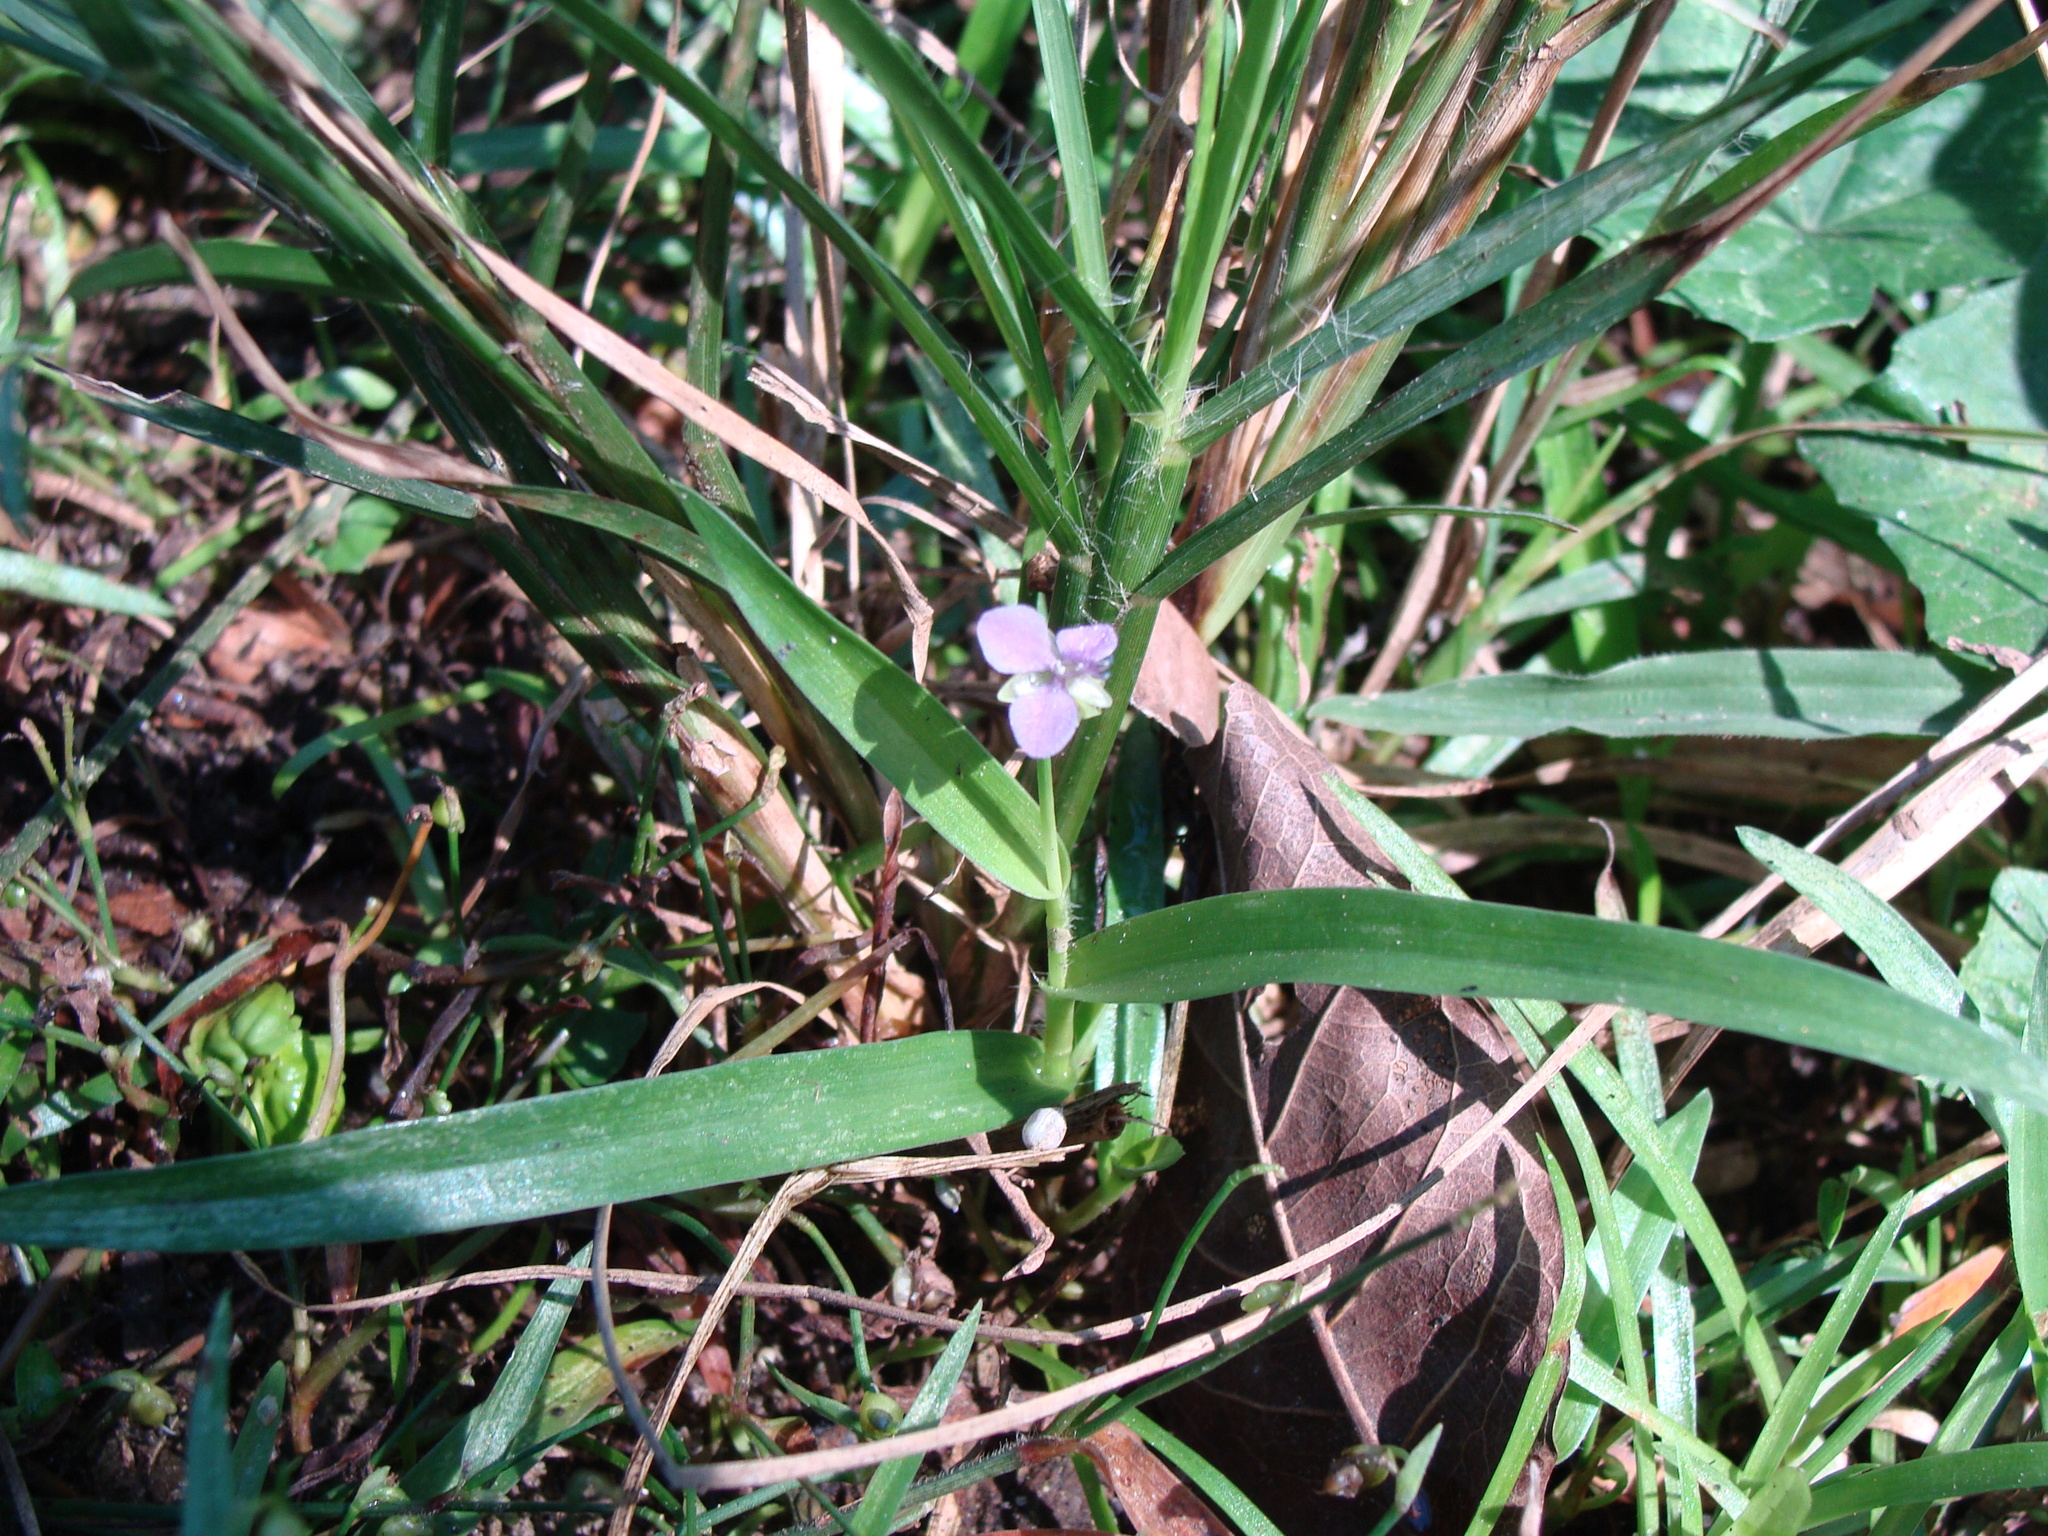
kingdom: Plantae
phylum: Tracheophyta
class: Liliopsida
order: Commelinales
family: Commelinaceae
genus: Murdannia
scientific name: Murdannia nudiflora
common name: Nakedstem dewflower
